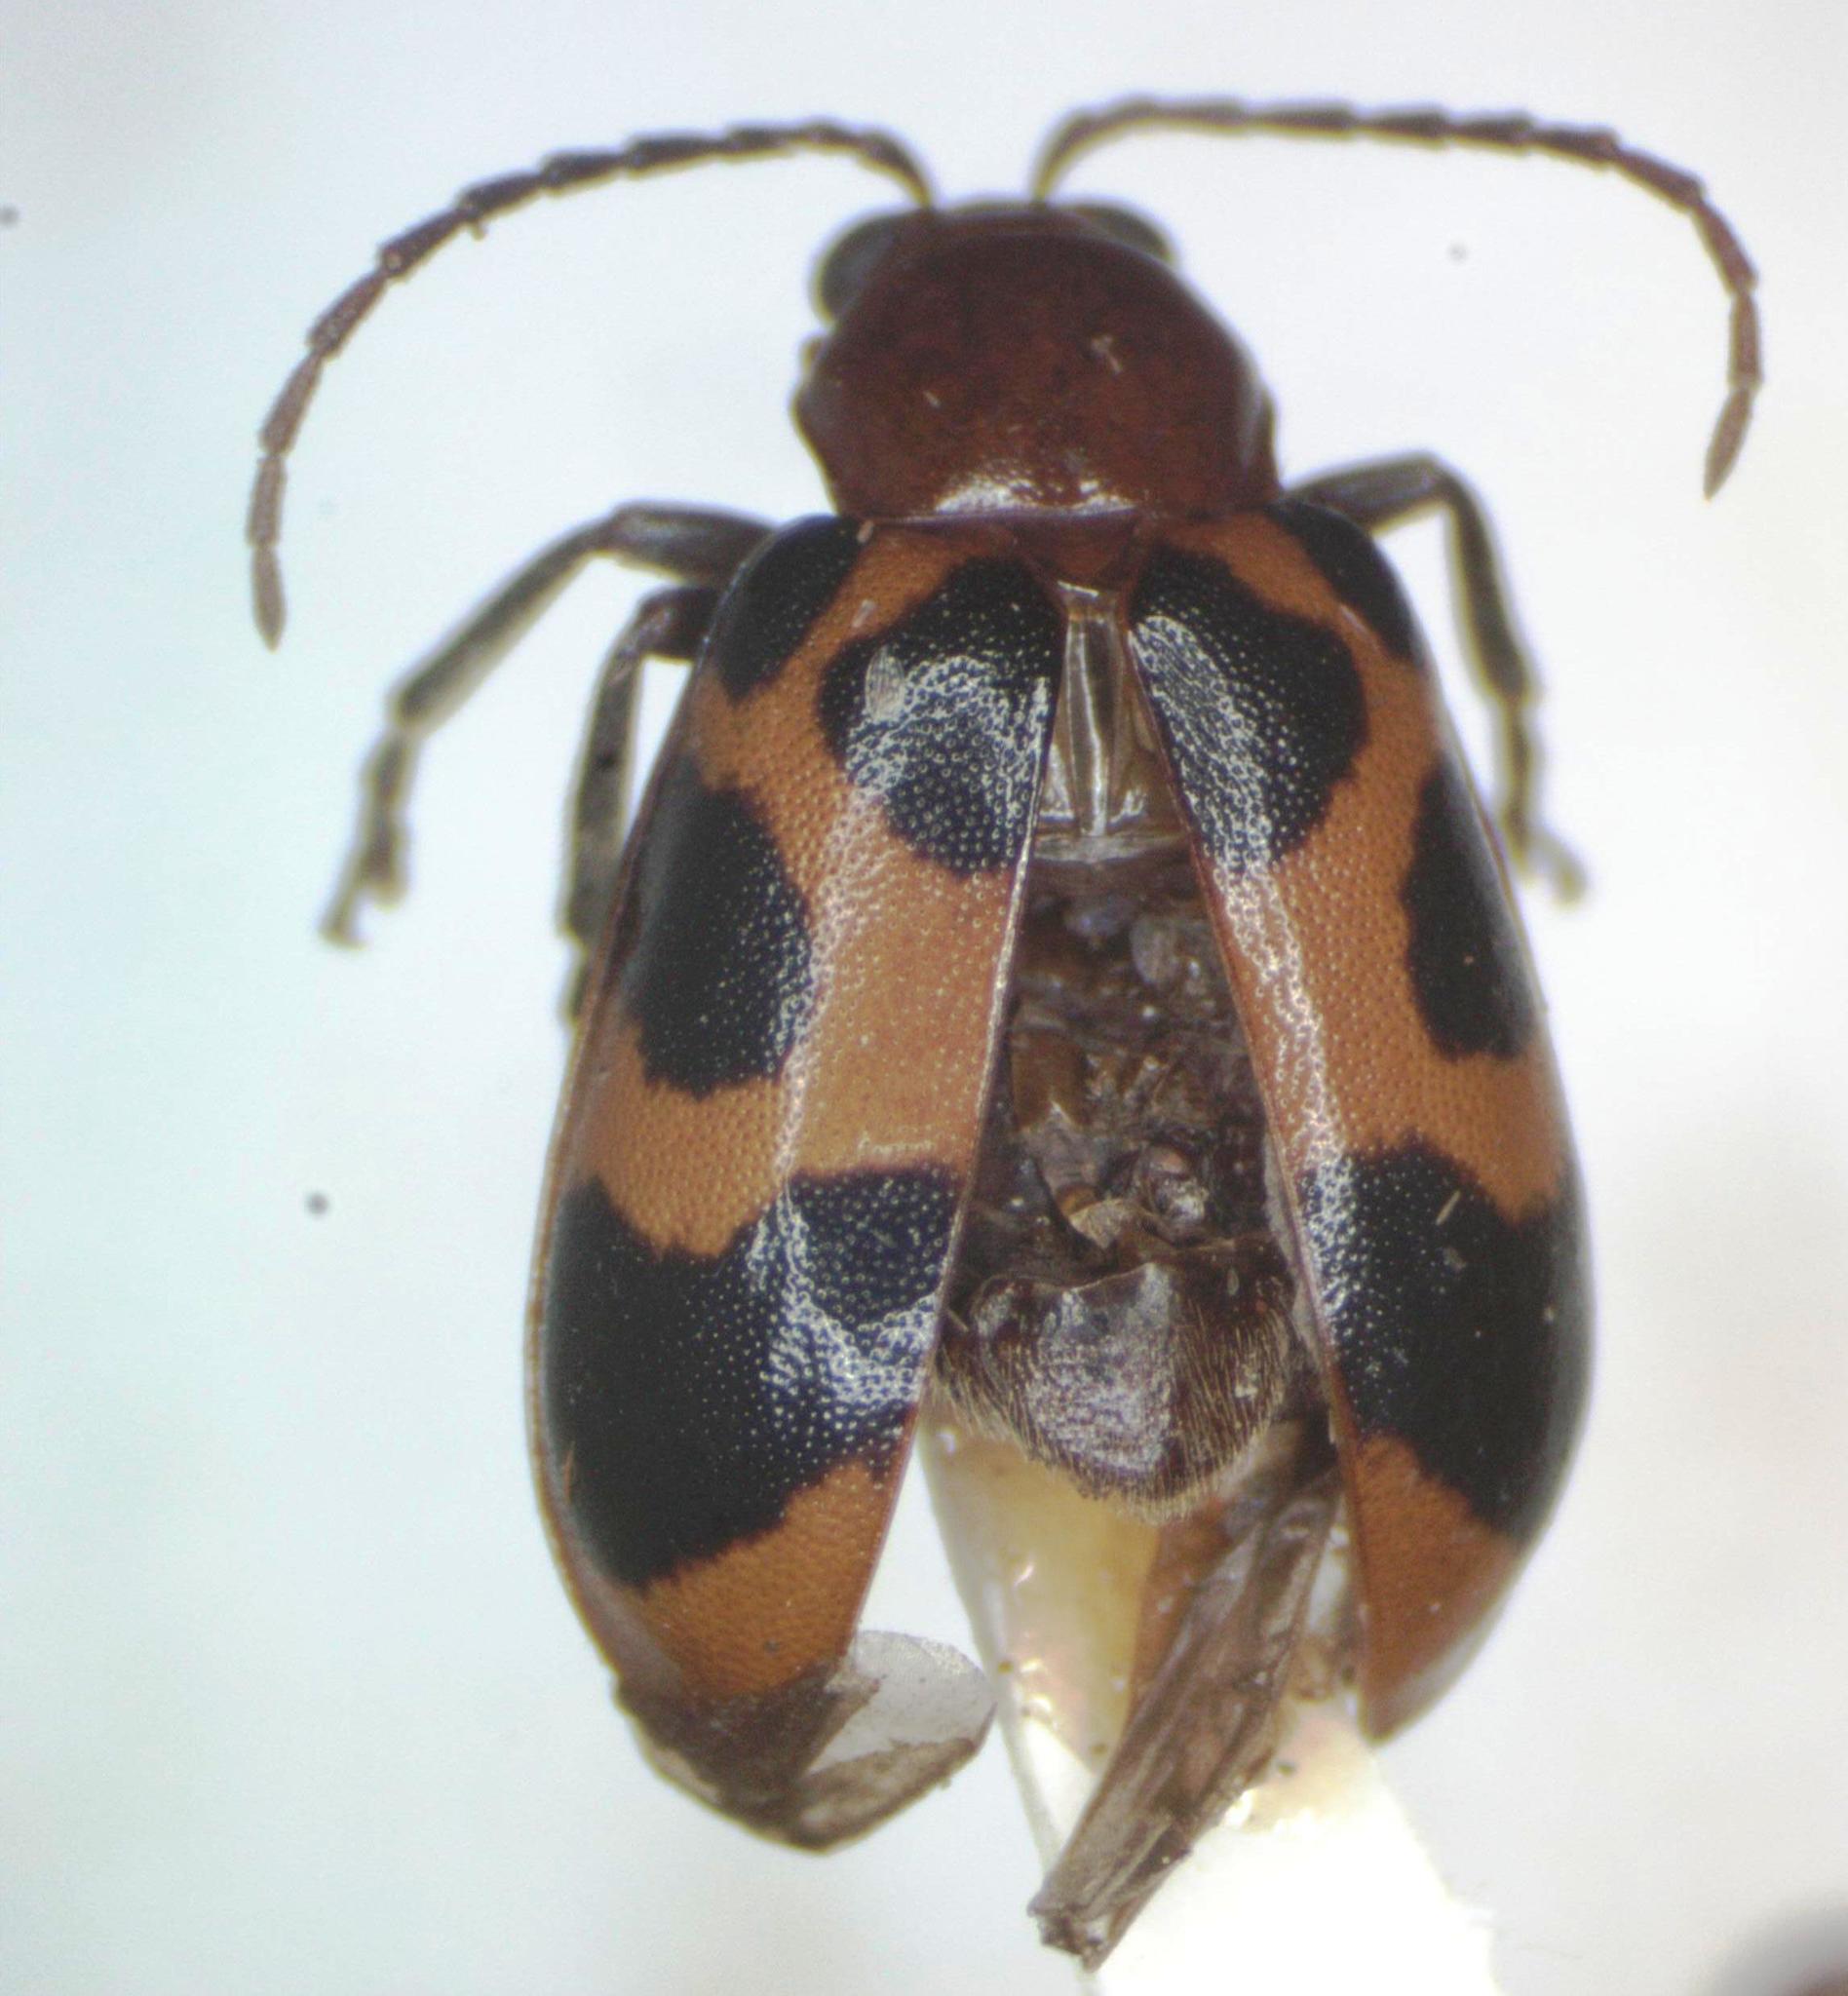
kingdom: Animalia
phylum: Arthropoda
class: Insecta
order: Coleoptera
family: Chrysomelidae
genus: Malacorhinus
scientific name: Malacorhinus
